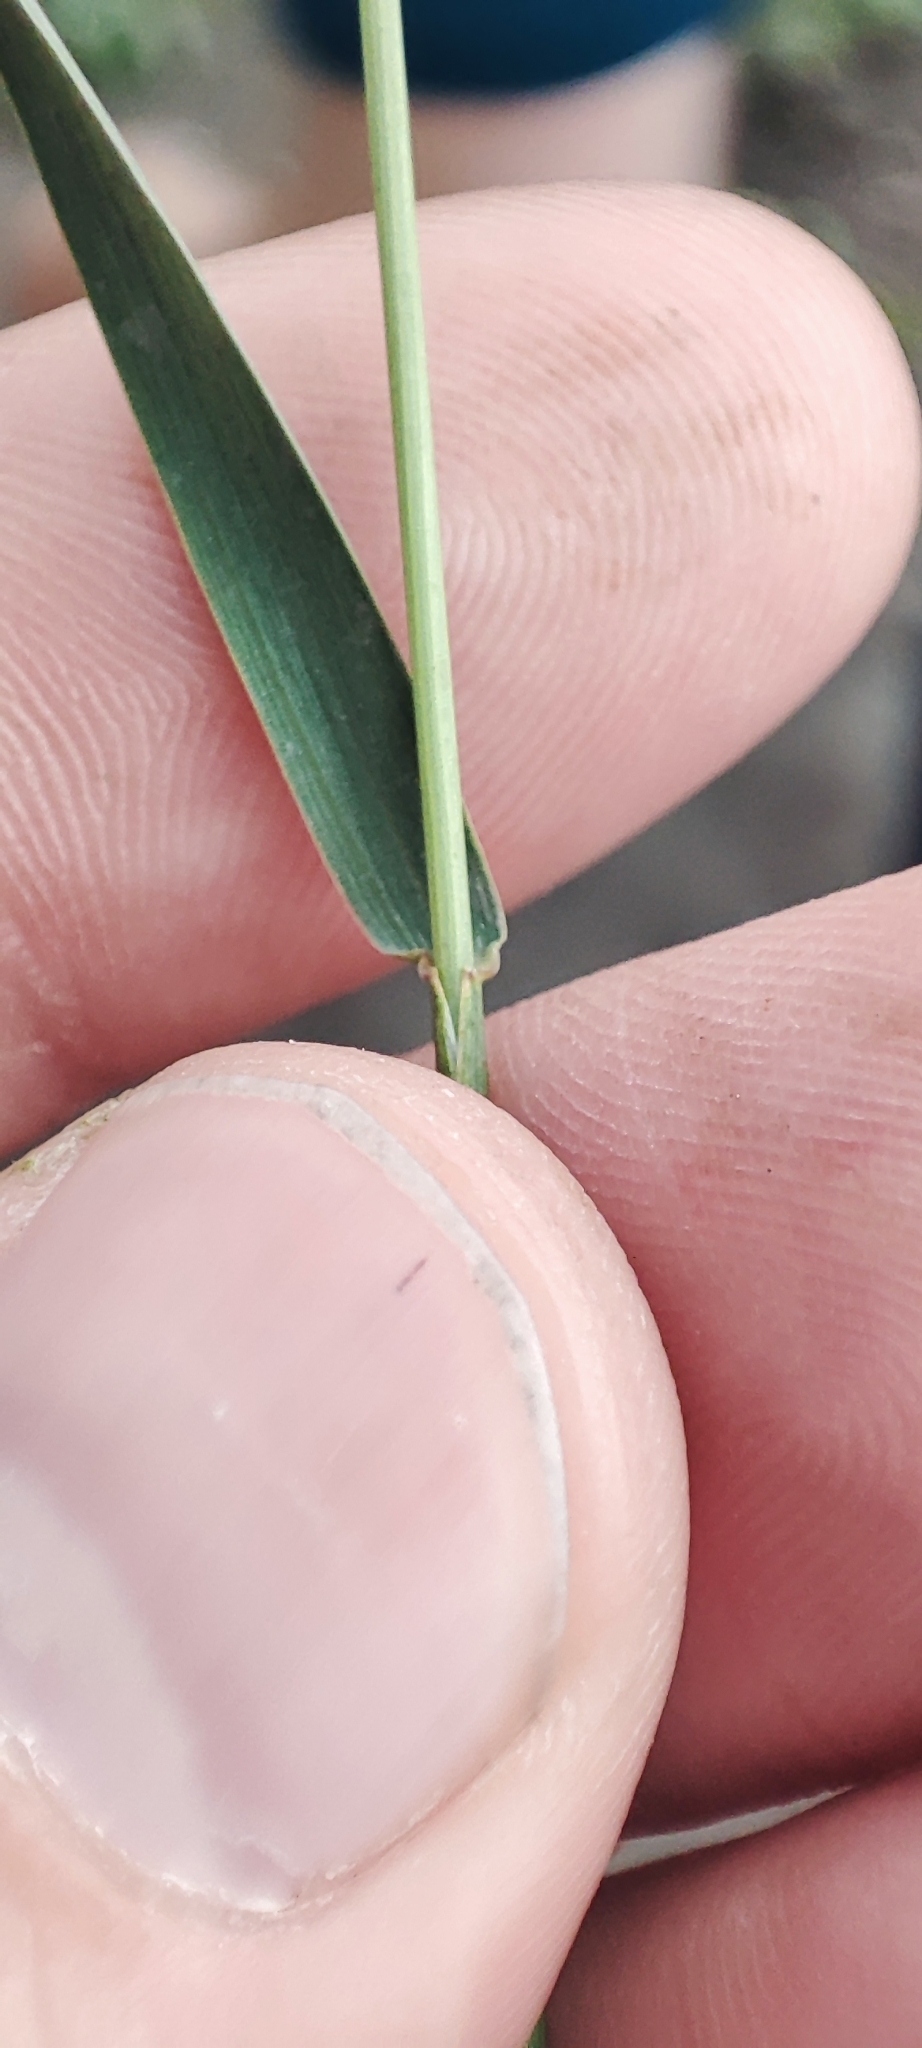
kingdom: Plantae
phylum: Tracheophyta
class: Liliopsida
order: Poales
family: Poaceae
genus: Hordeum
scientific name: Hordeum brevisubulatum
